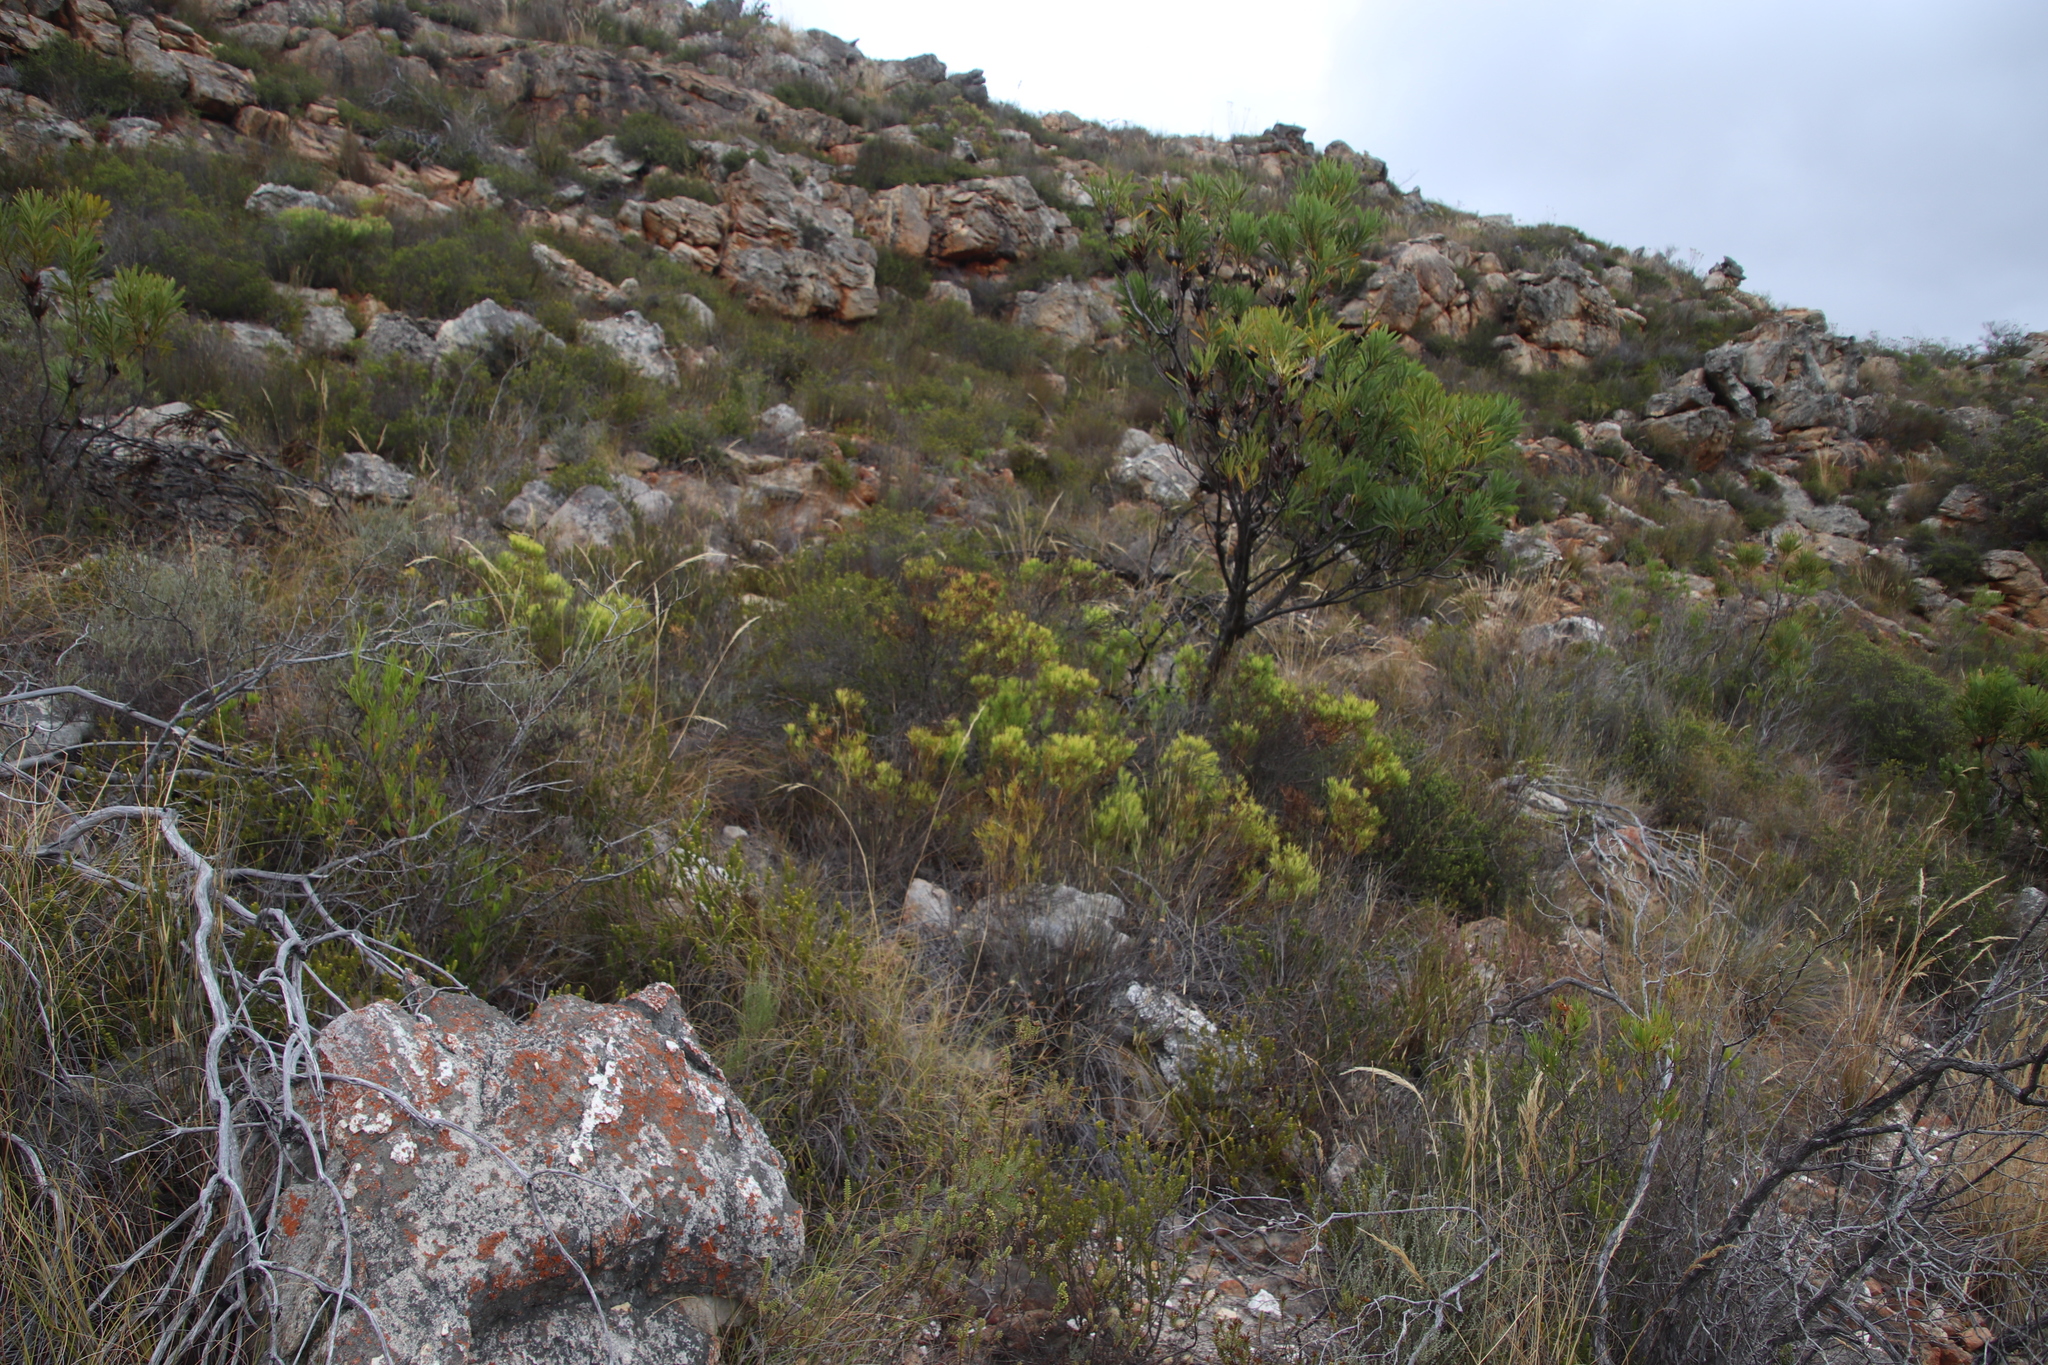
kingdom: Plantae
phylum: Tracheophyta
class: Magnoliopsida
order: Proteales
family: Proteaceae
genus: Leucadendron
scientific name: Leucadendron salignum
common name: Common sunshine conebush
